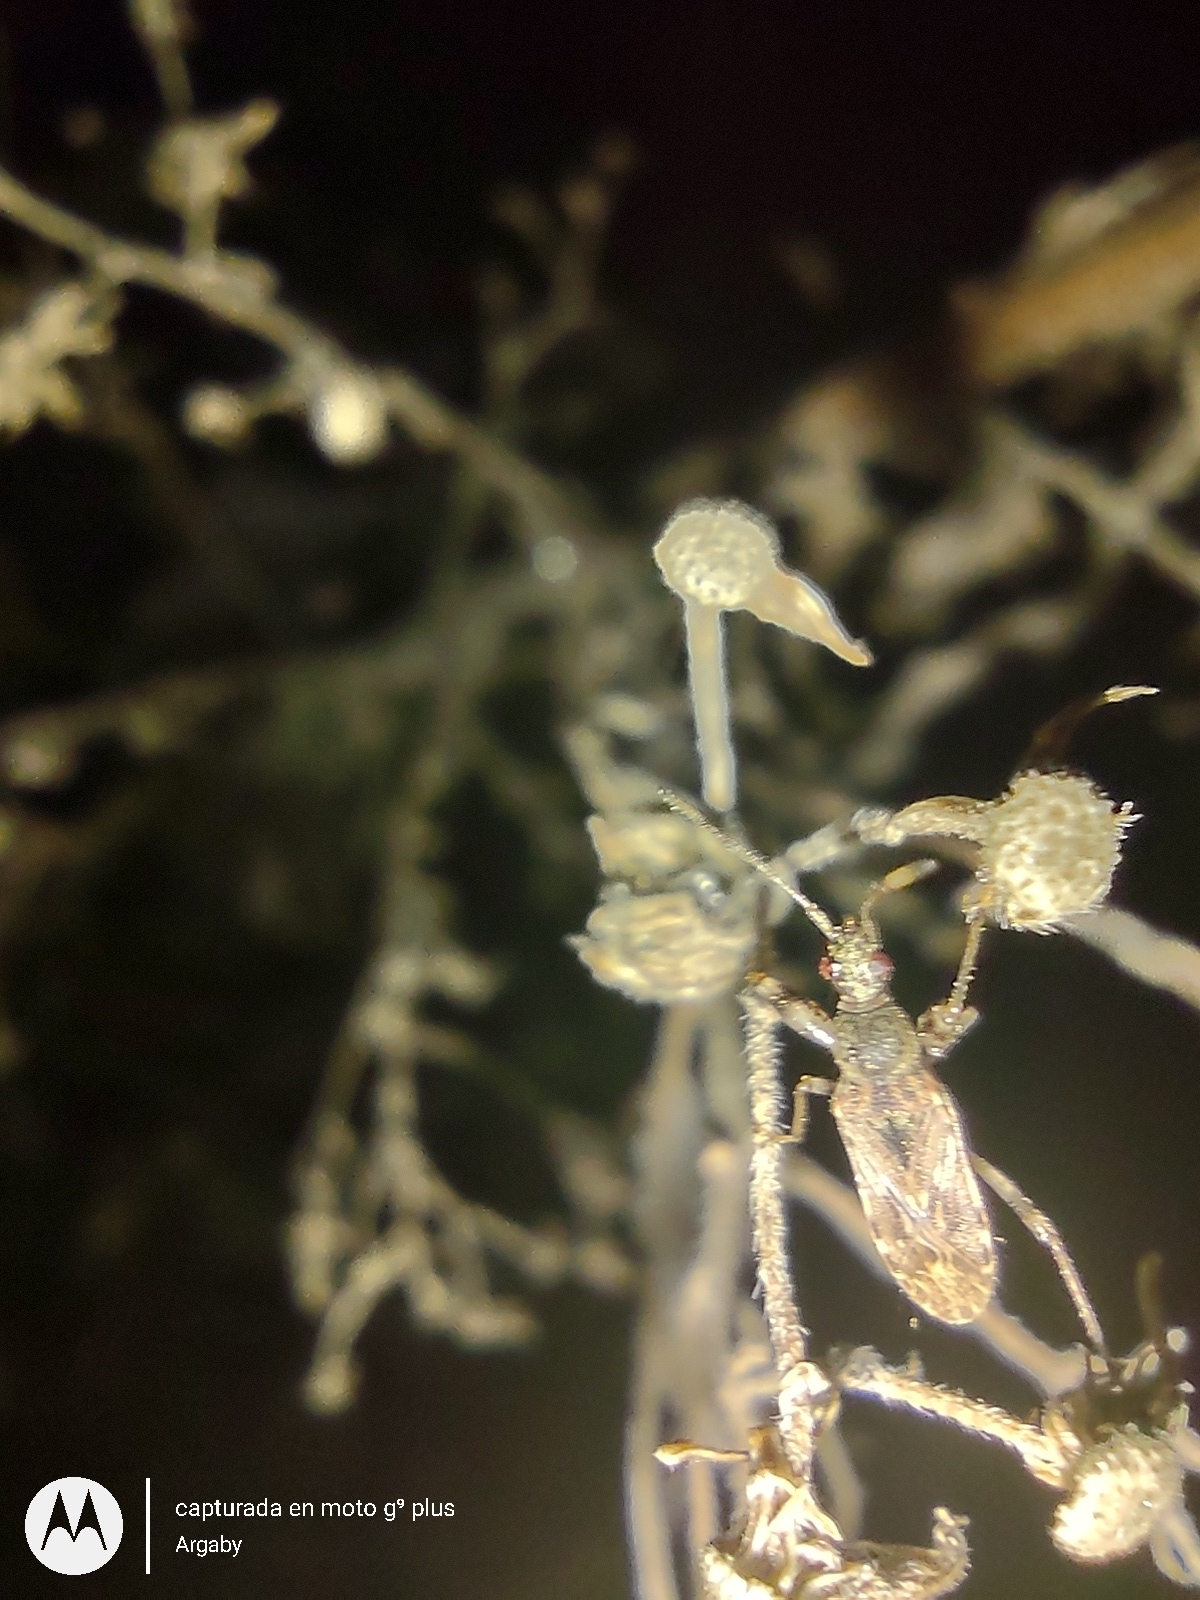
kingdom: Animalia
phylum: Arthropoda
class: Insecta
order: Hemiptera
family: Rhyparochromidae
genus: Paisana
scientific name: Paisana brachialis
